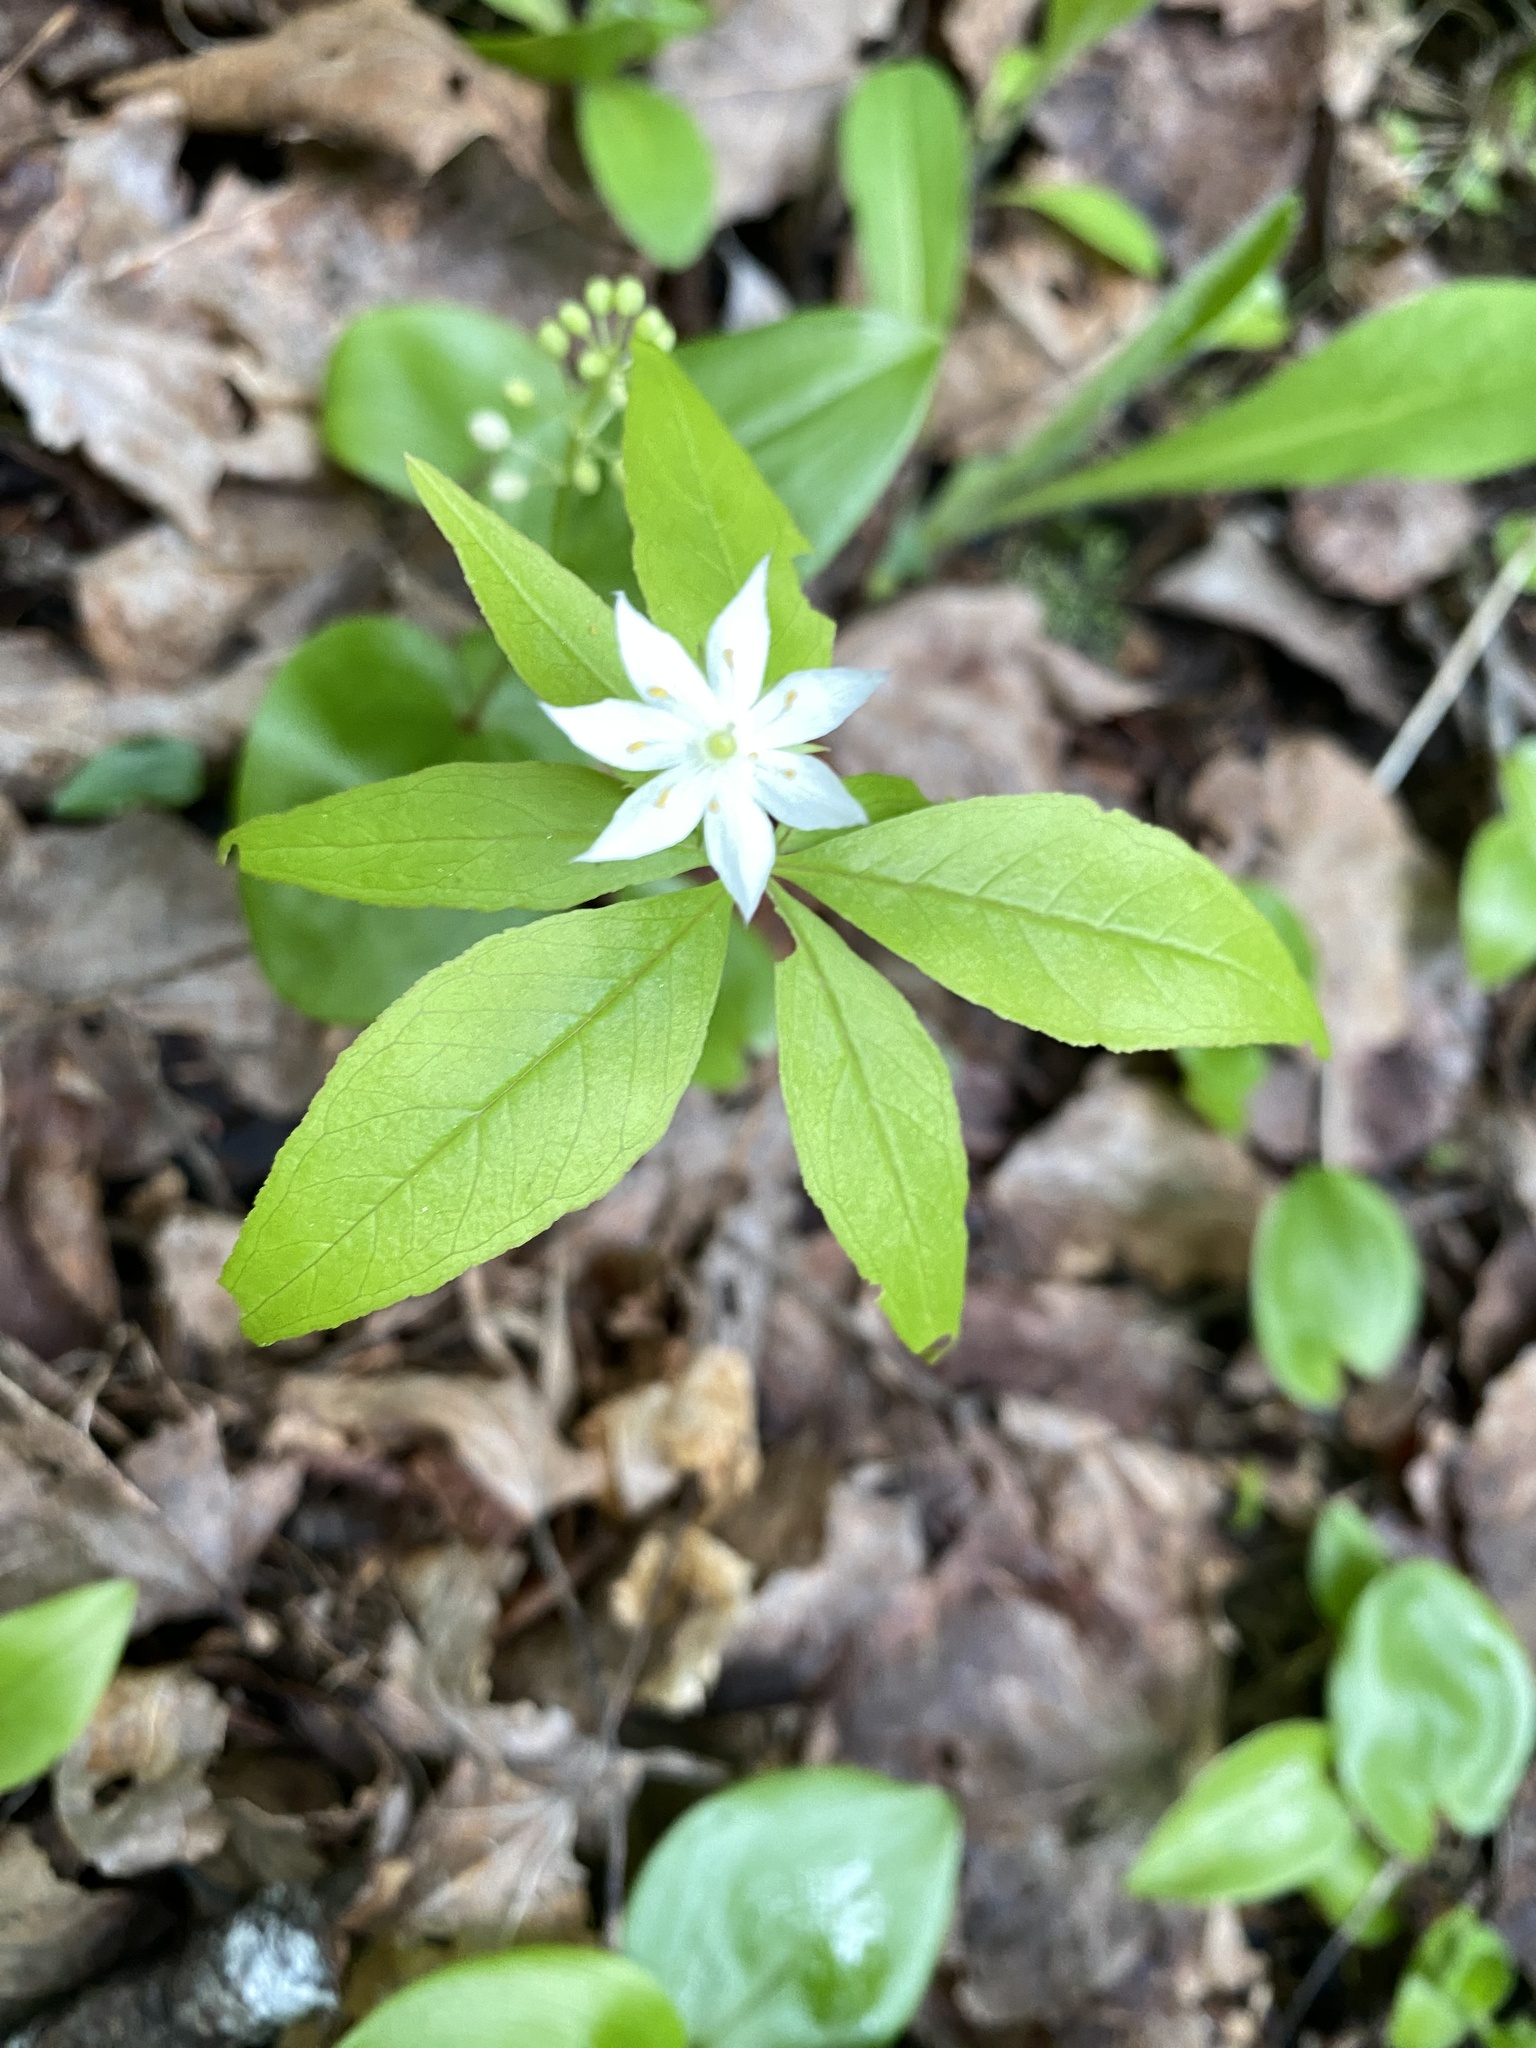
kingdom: Plantae
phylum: Tracheophyta
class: Magnoliopsida
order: Ericales
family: Primulaceae
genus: Lysimachia
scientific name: Lysimachia borealis
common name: American starflower
